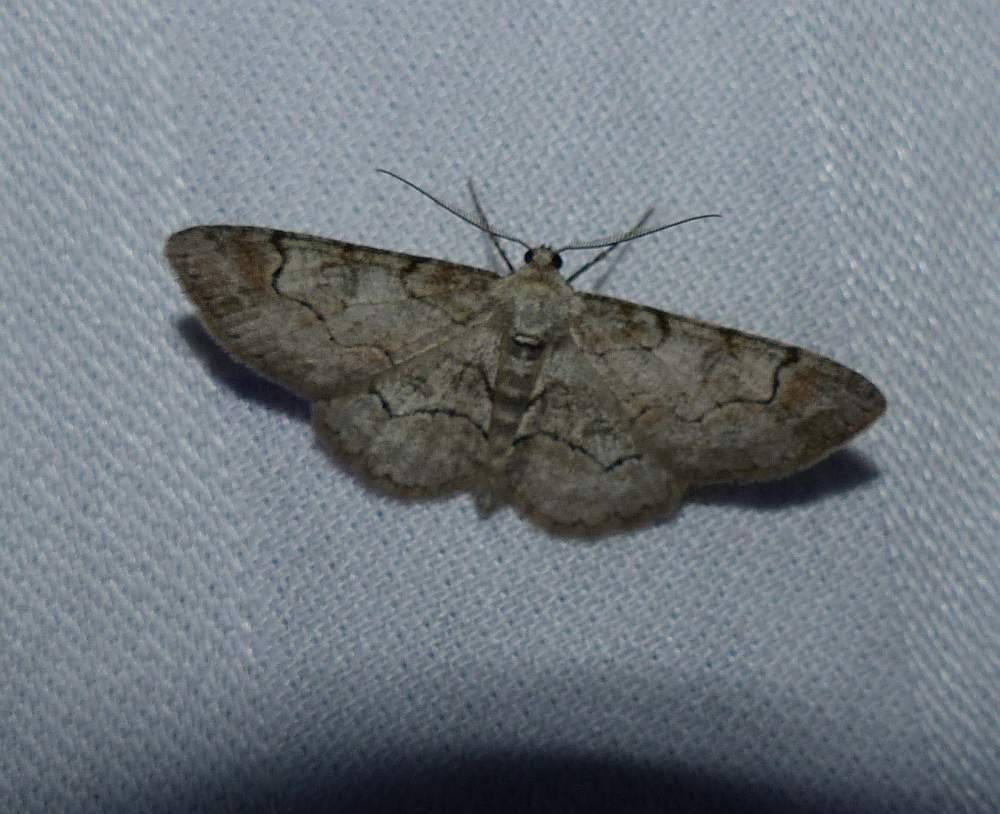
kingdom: Animalia
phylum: Arthropoda
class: Insecta
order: Lepidoptera
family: Geometridae
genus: Iridopsis
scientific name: Iridopsis larvaria
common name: Bent-line gray
